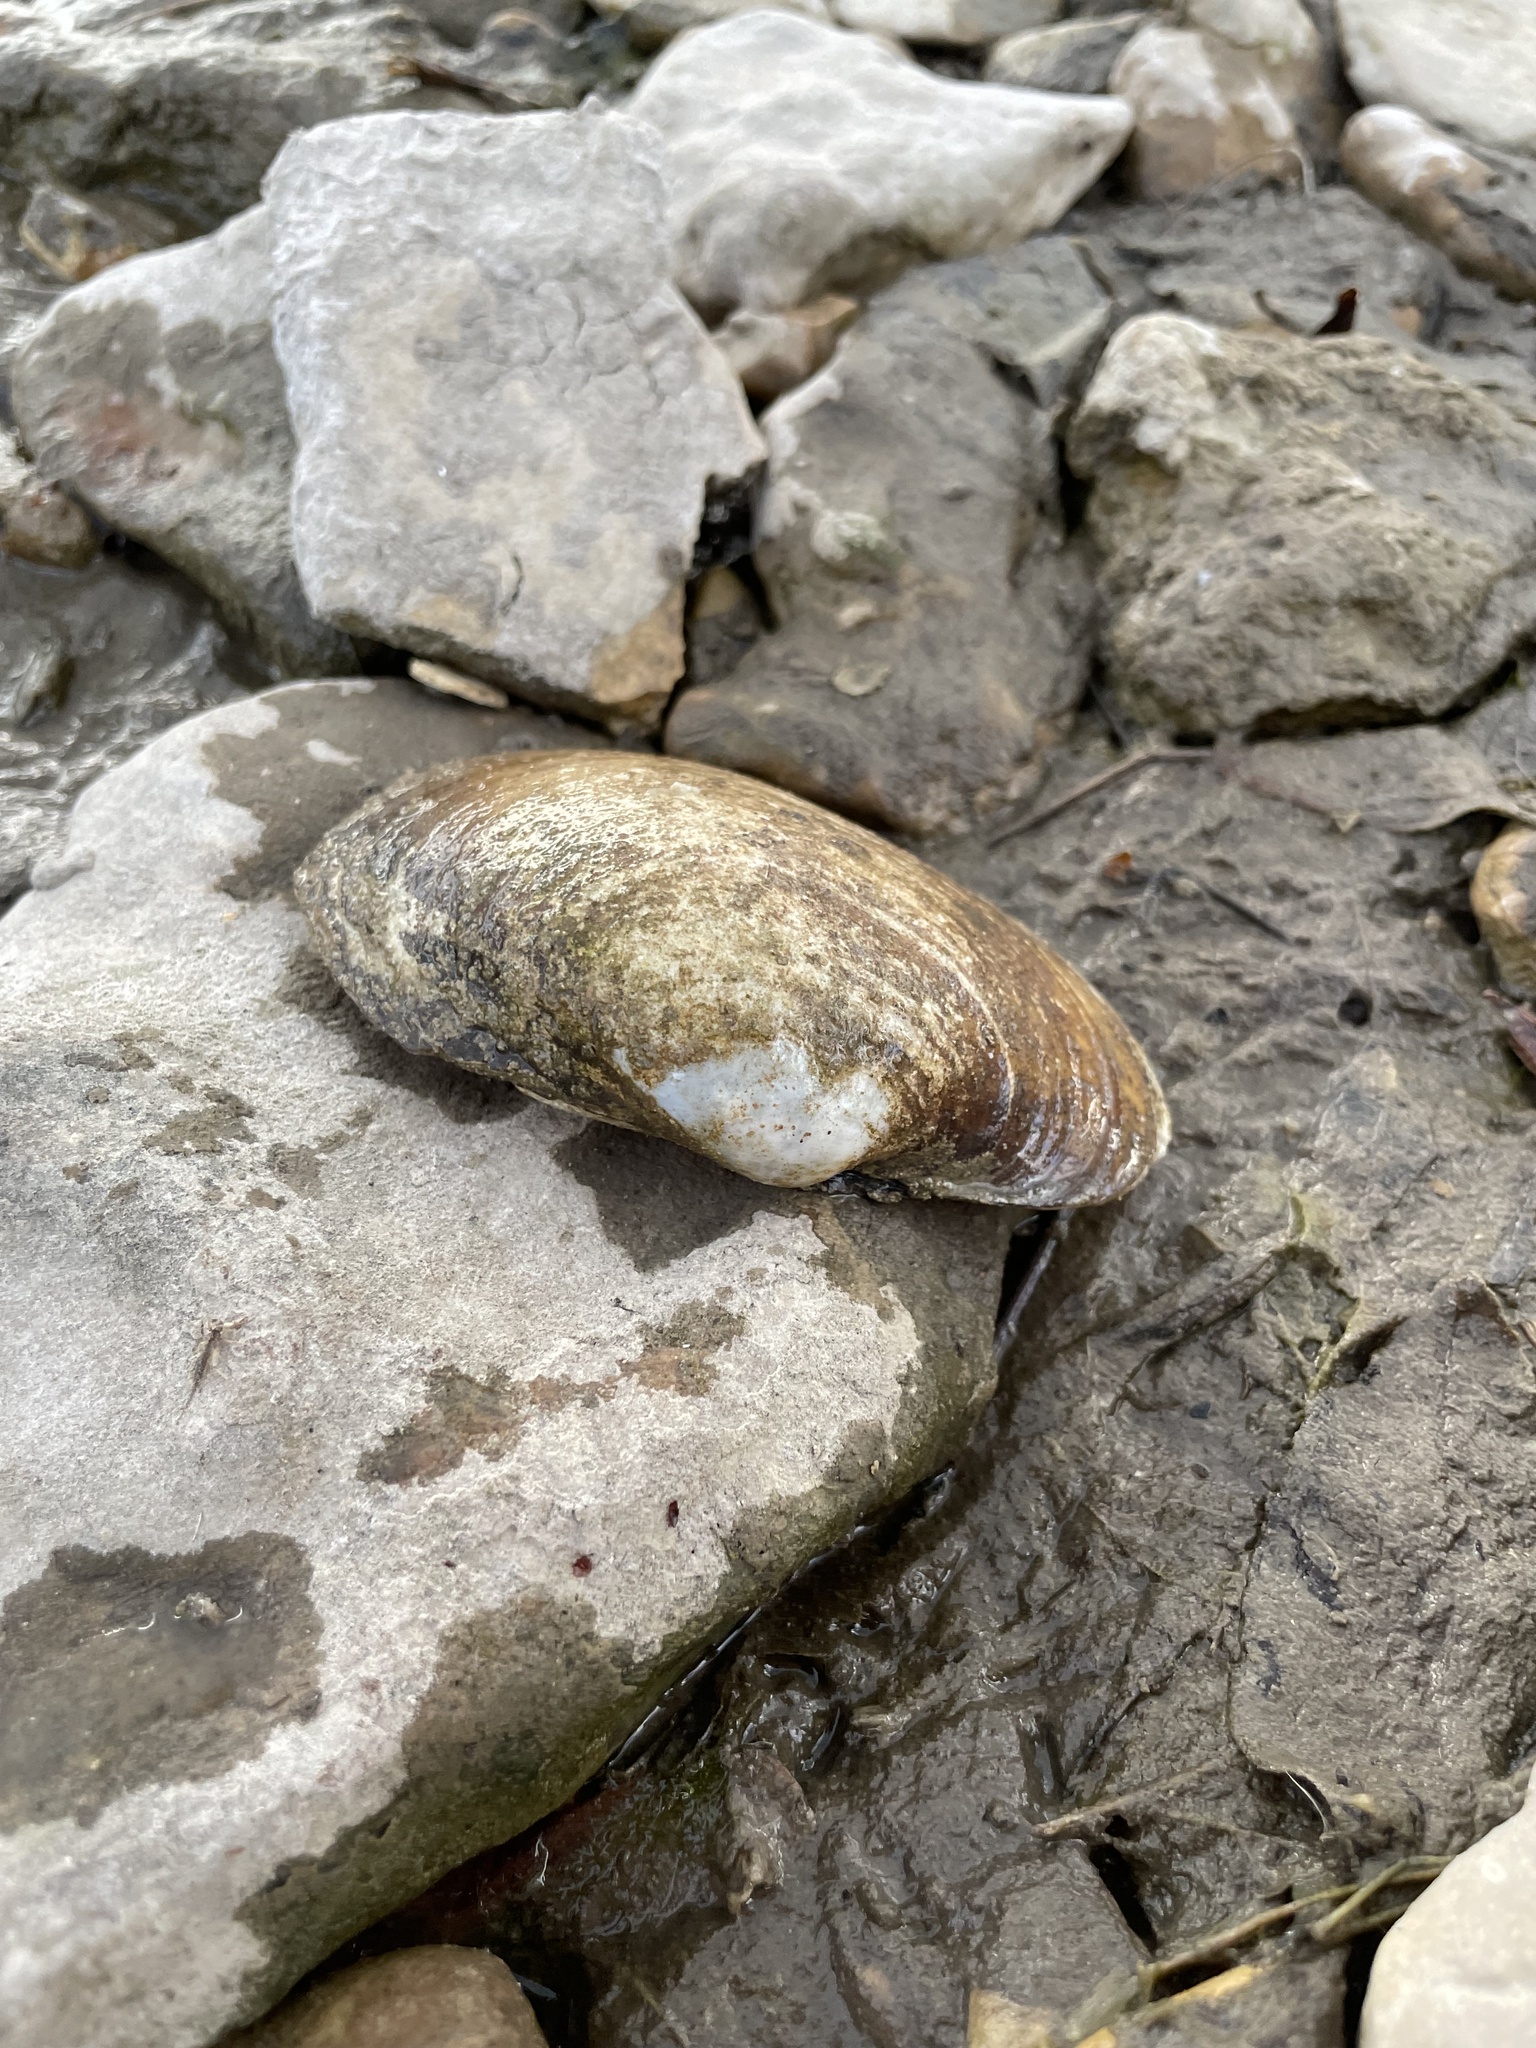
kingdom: Animalia
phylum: Mollusca
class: Bivalvia
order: Unionida
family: Unionidae
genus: Lampsilis
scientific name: Lampsilis cardium
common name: Plain pocketbook
